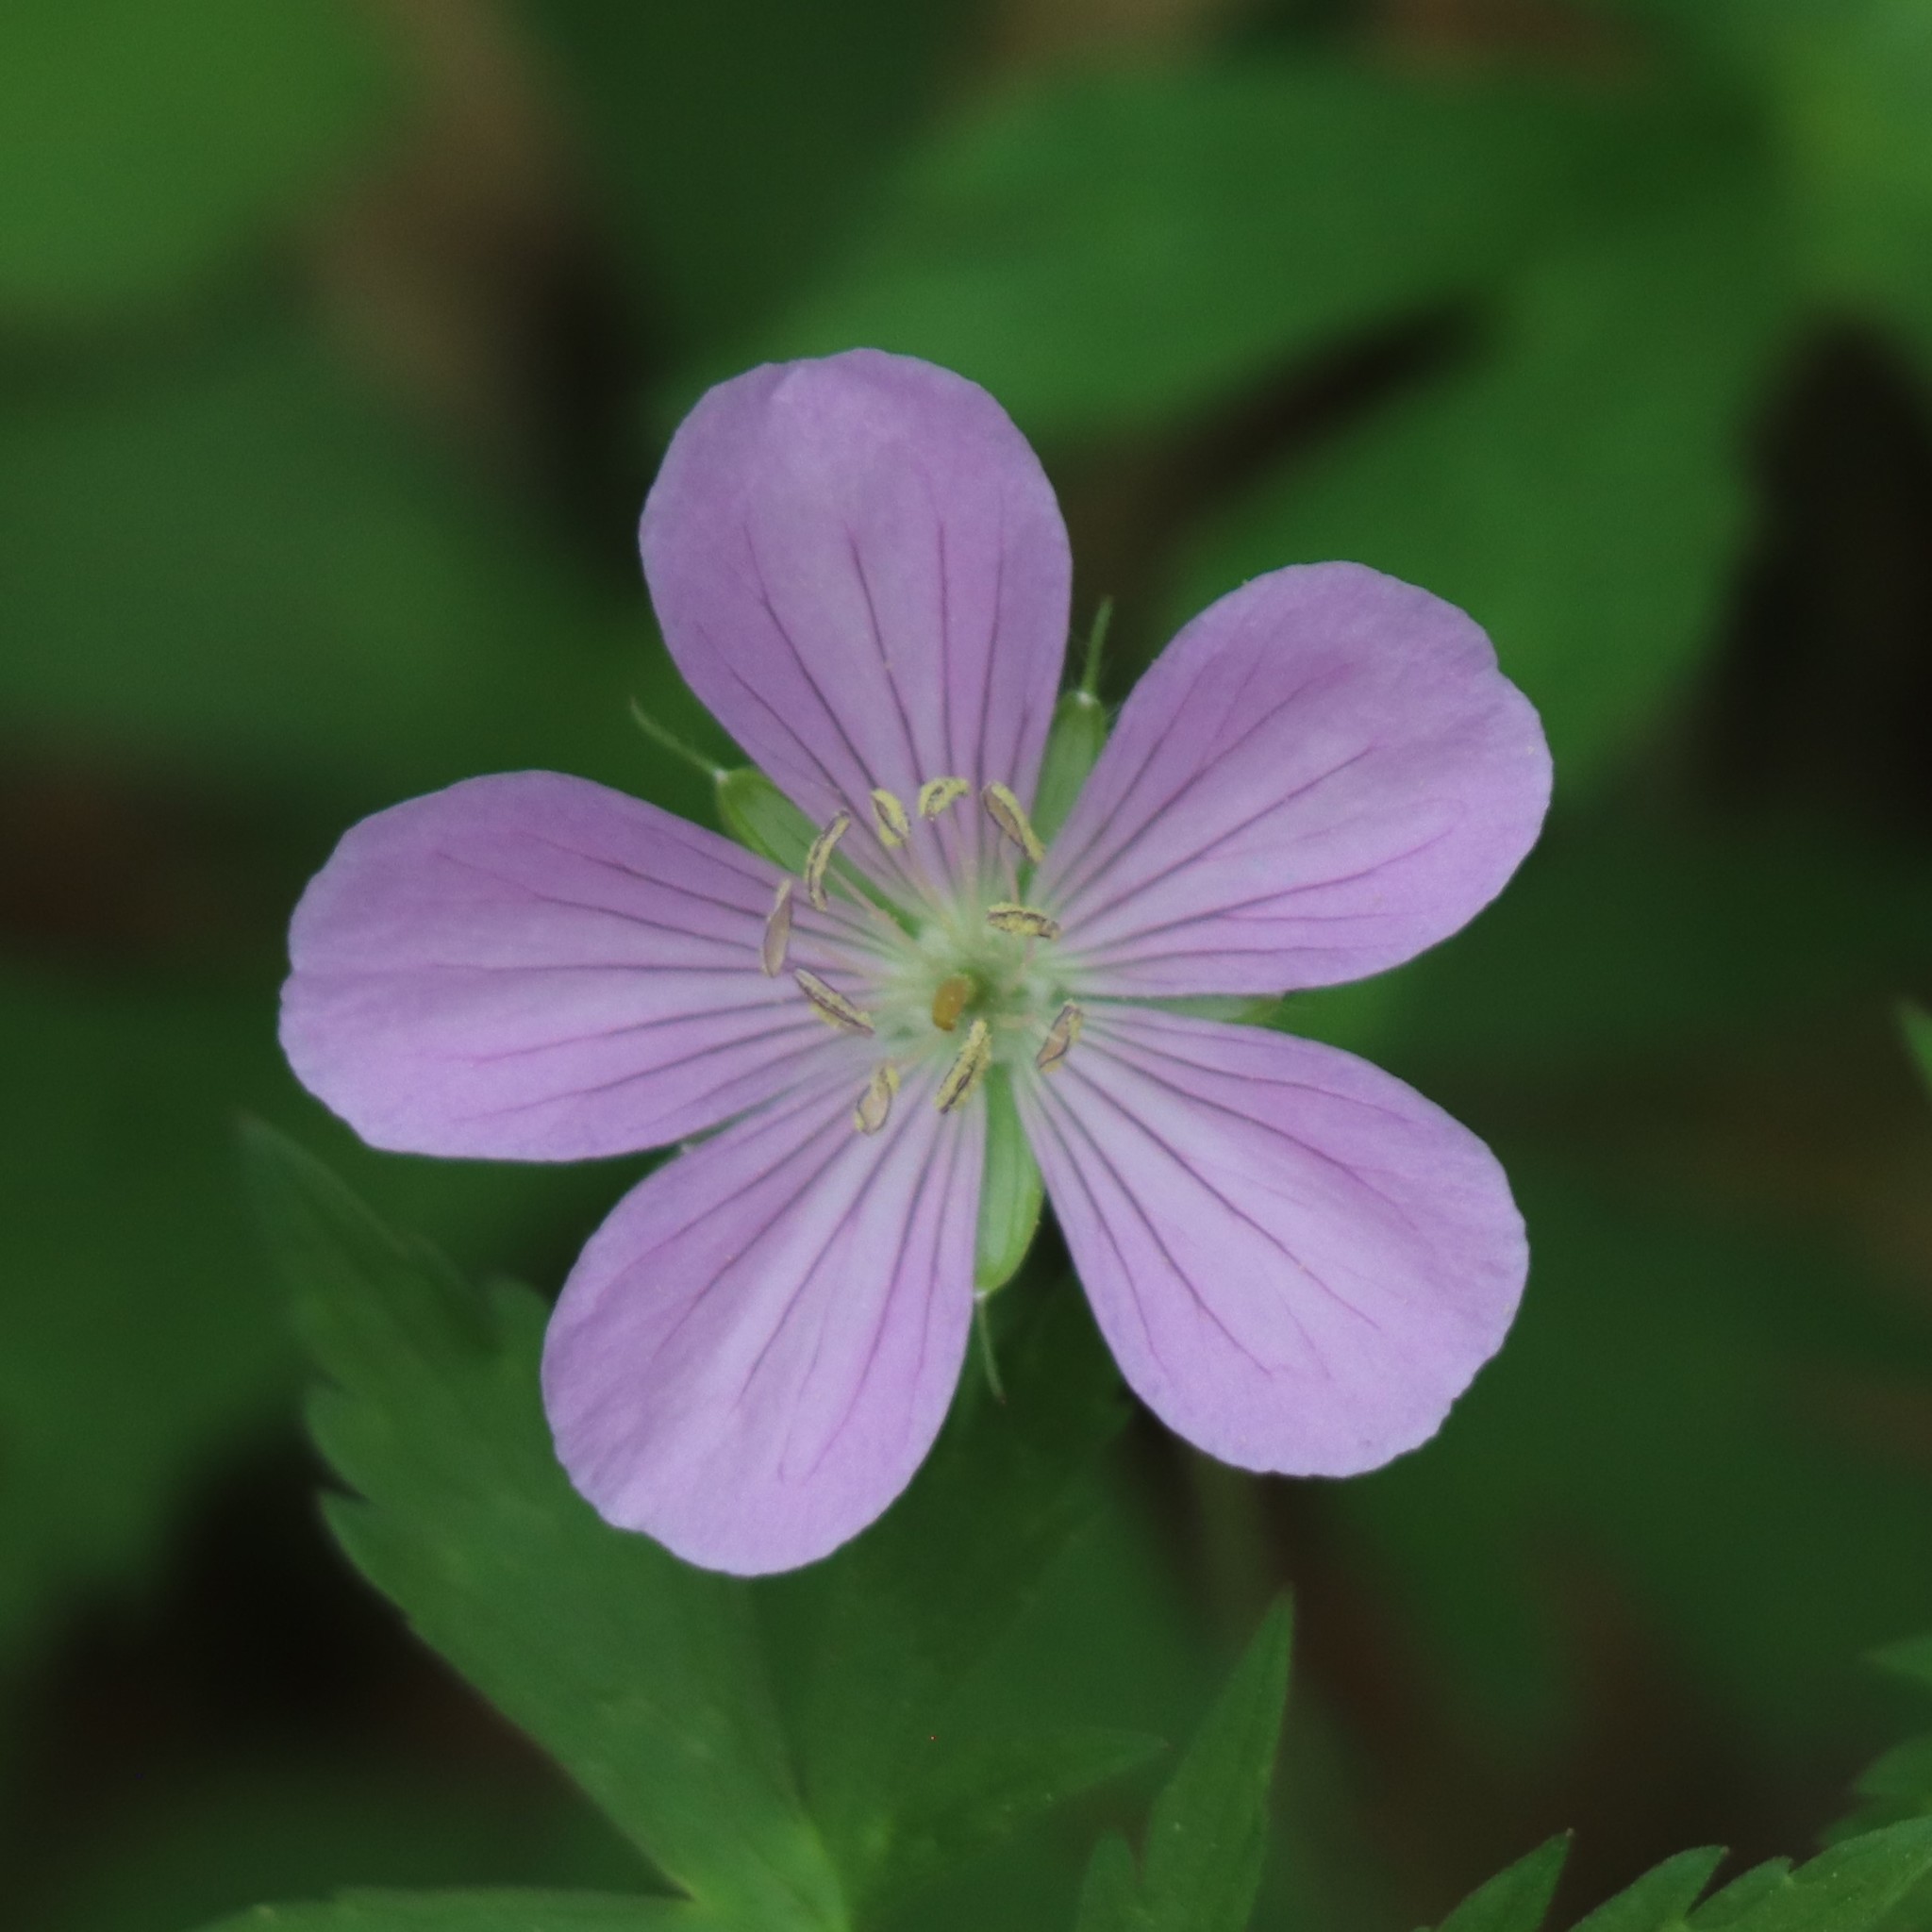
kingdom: Plantae
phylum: Tracheophyta
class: Magnoliopsida
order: Geraniales
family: Geraniaceae
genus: Geranium
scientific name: Geranium maculatum
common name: Spotted geranium
